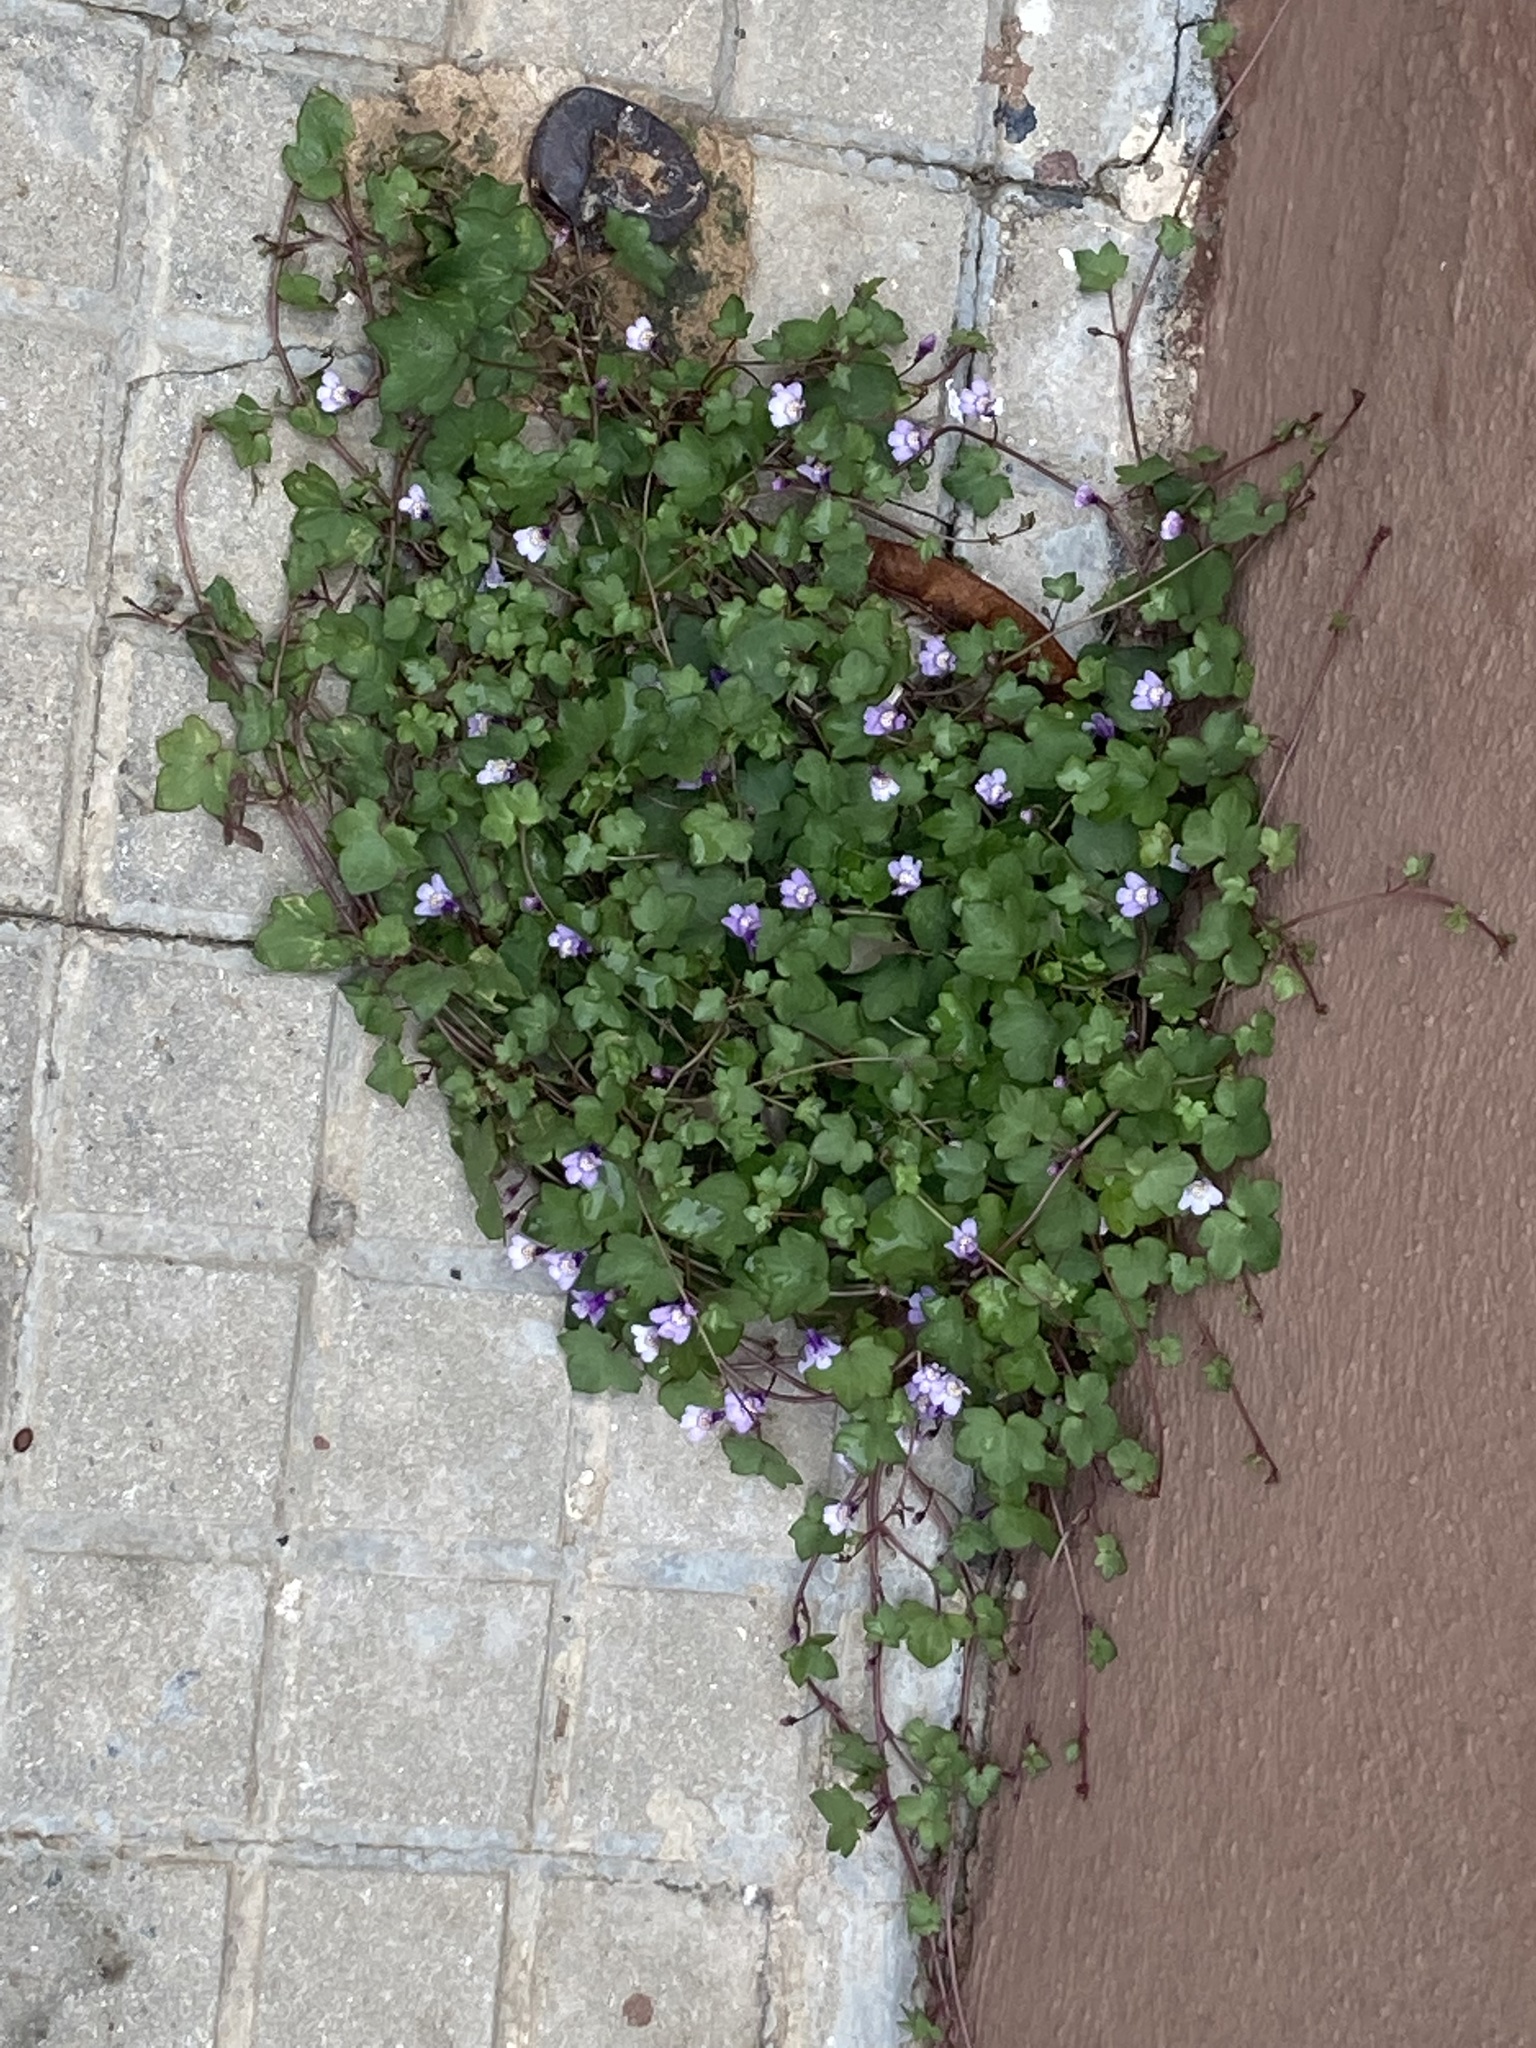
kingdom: Plantae
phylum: Tracheophyta
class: Magnoliopsida
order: Lamiales
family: Plantaginaceae
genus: Cymbalaria
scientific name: Cymbalaria muralis
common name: Ivy-leaved toadflax
